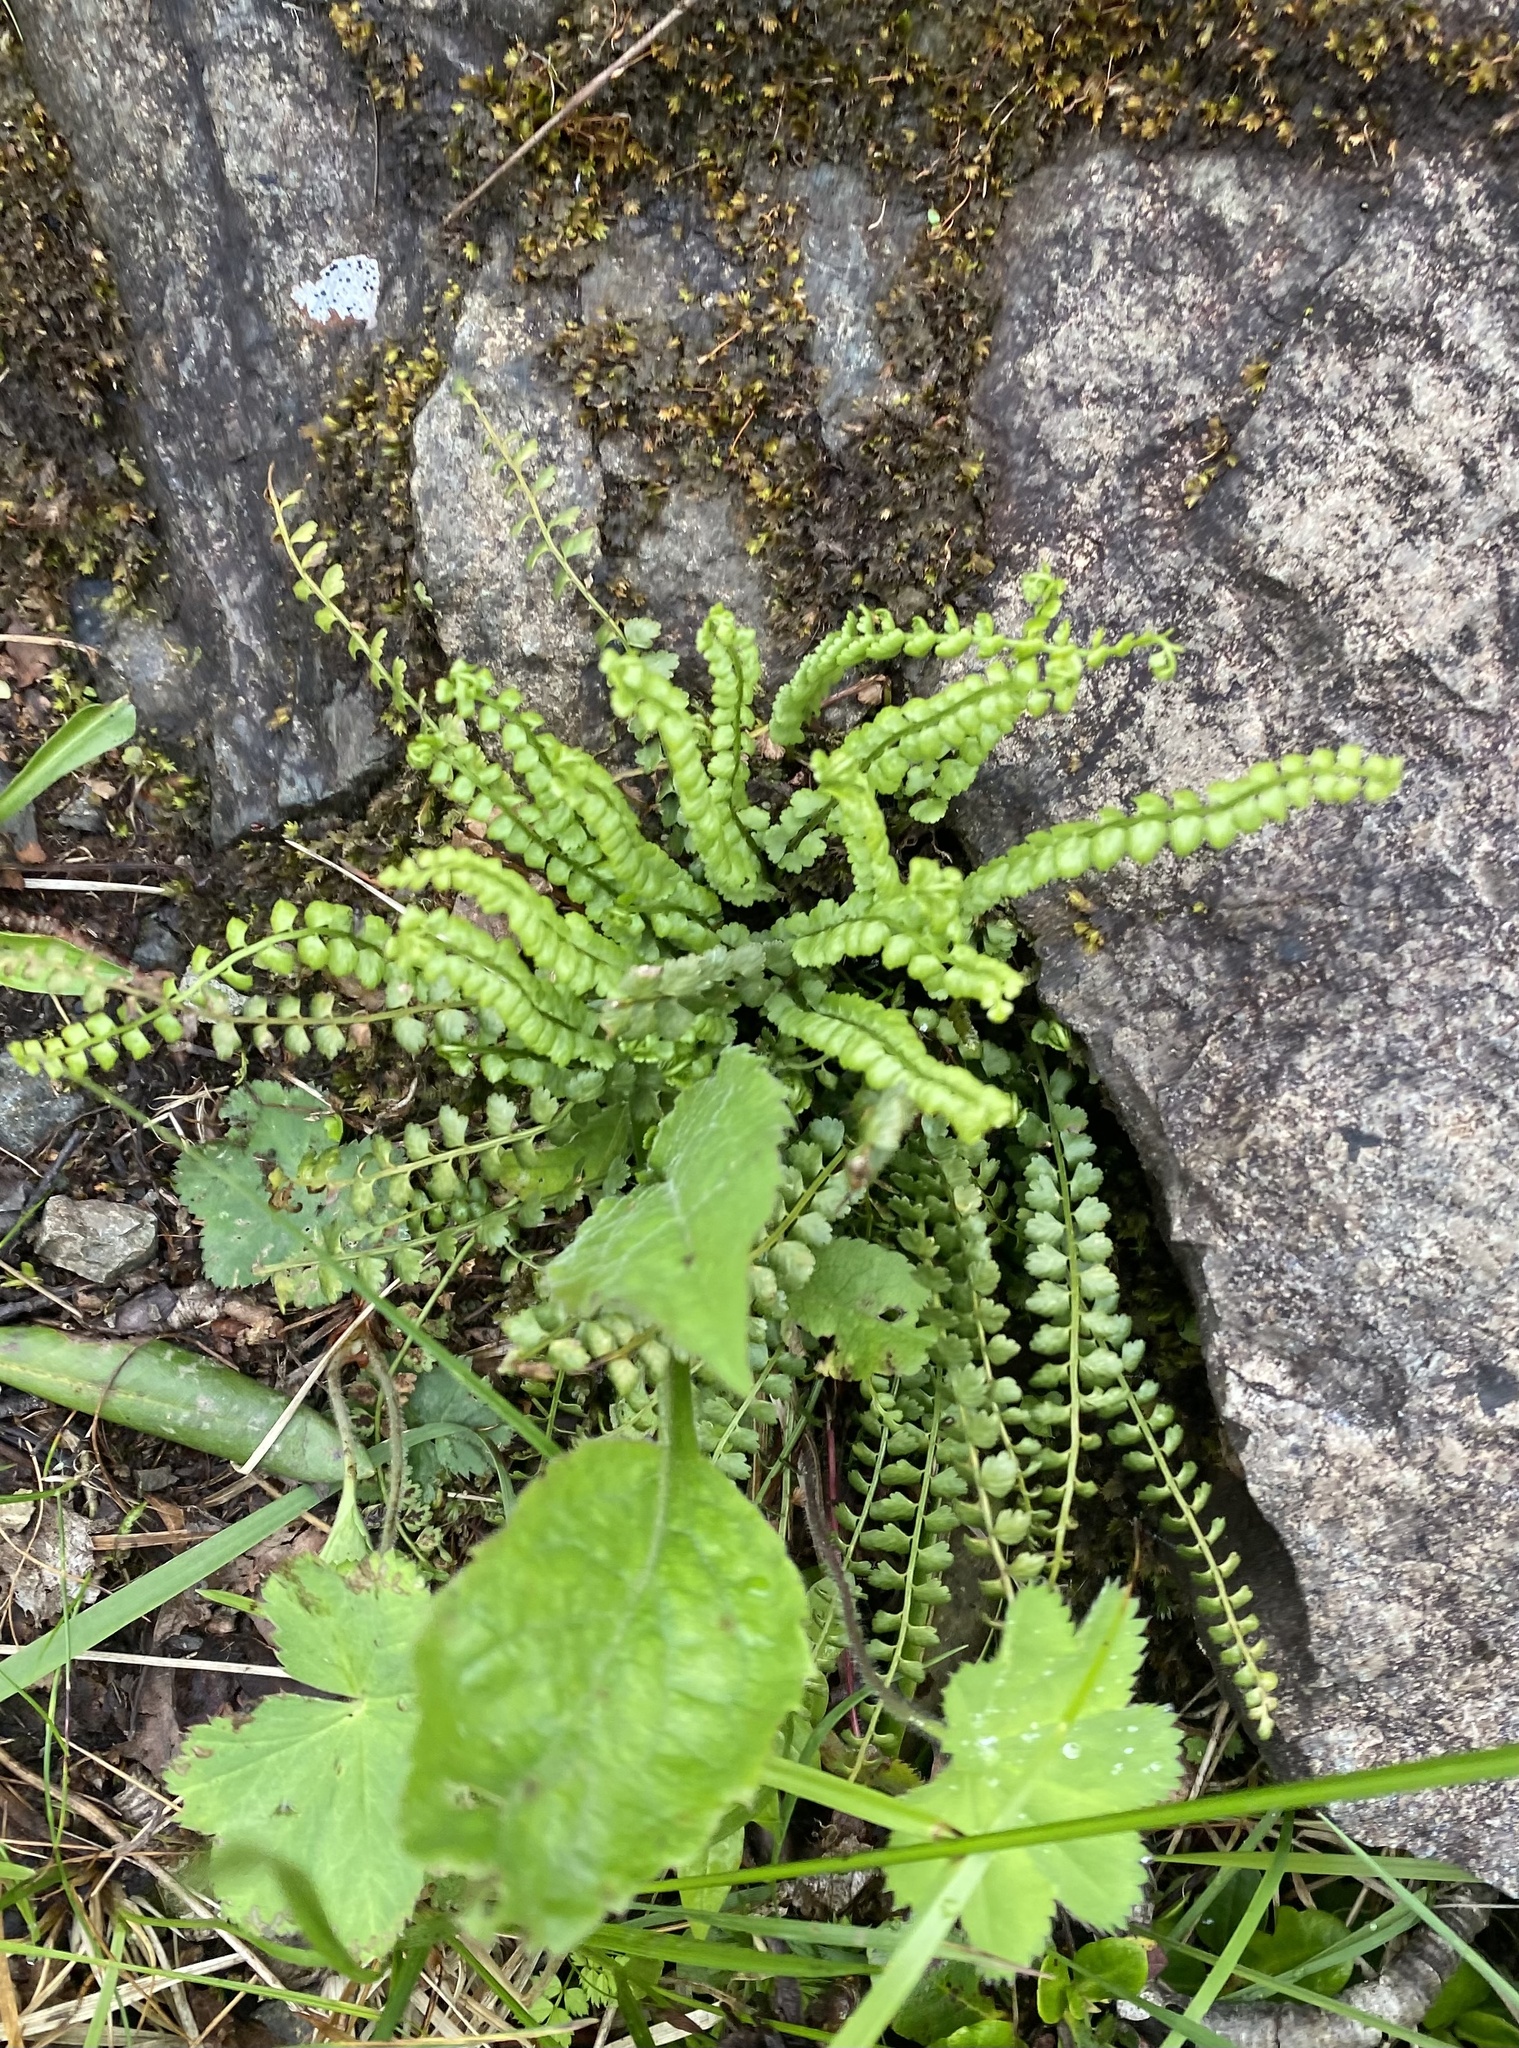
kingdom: Plantae
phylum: Tracheophyta
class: Polypodiopsida
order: Polypodiales
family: Aspleniaceae
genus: Asplenium
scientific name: Asplenium viride
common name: Green spleenwort
